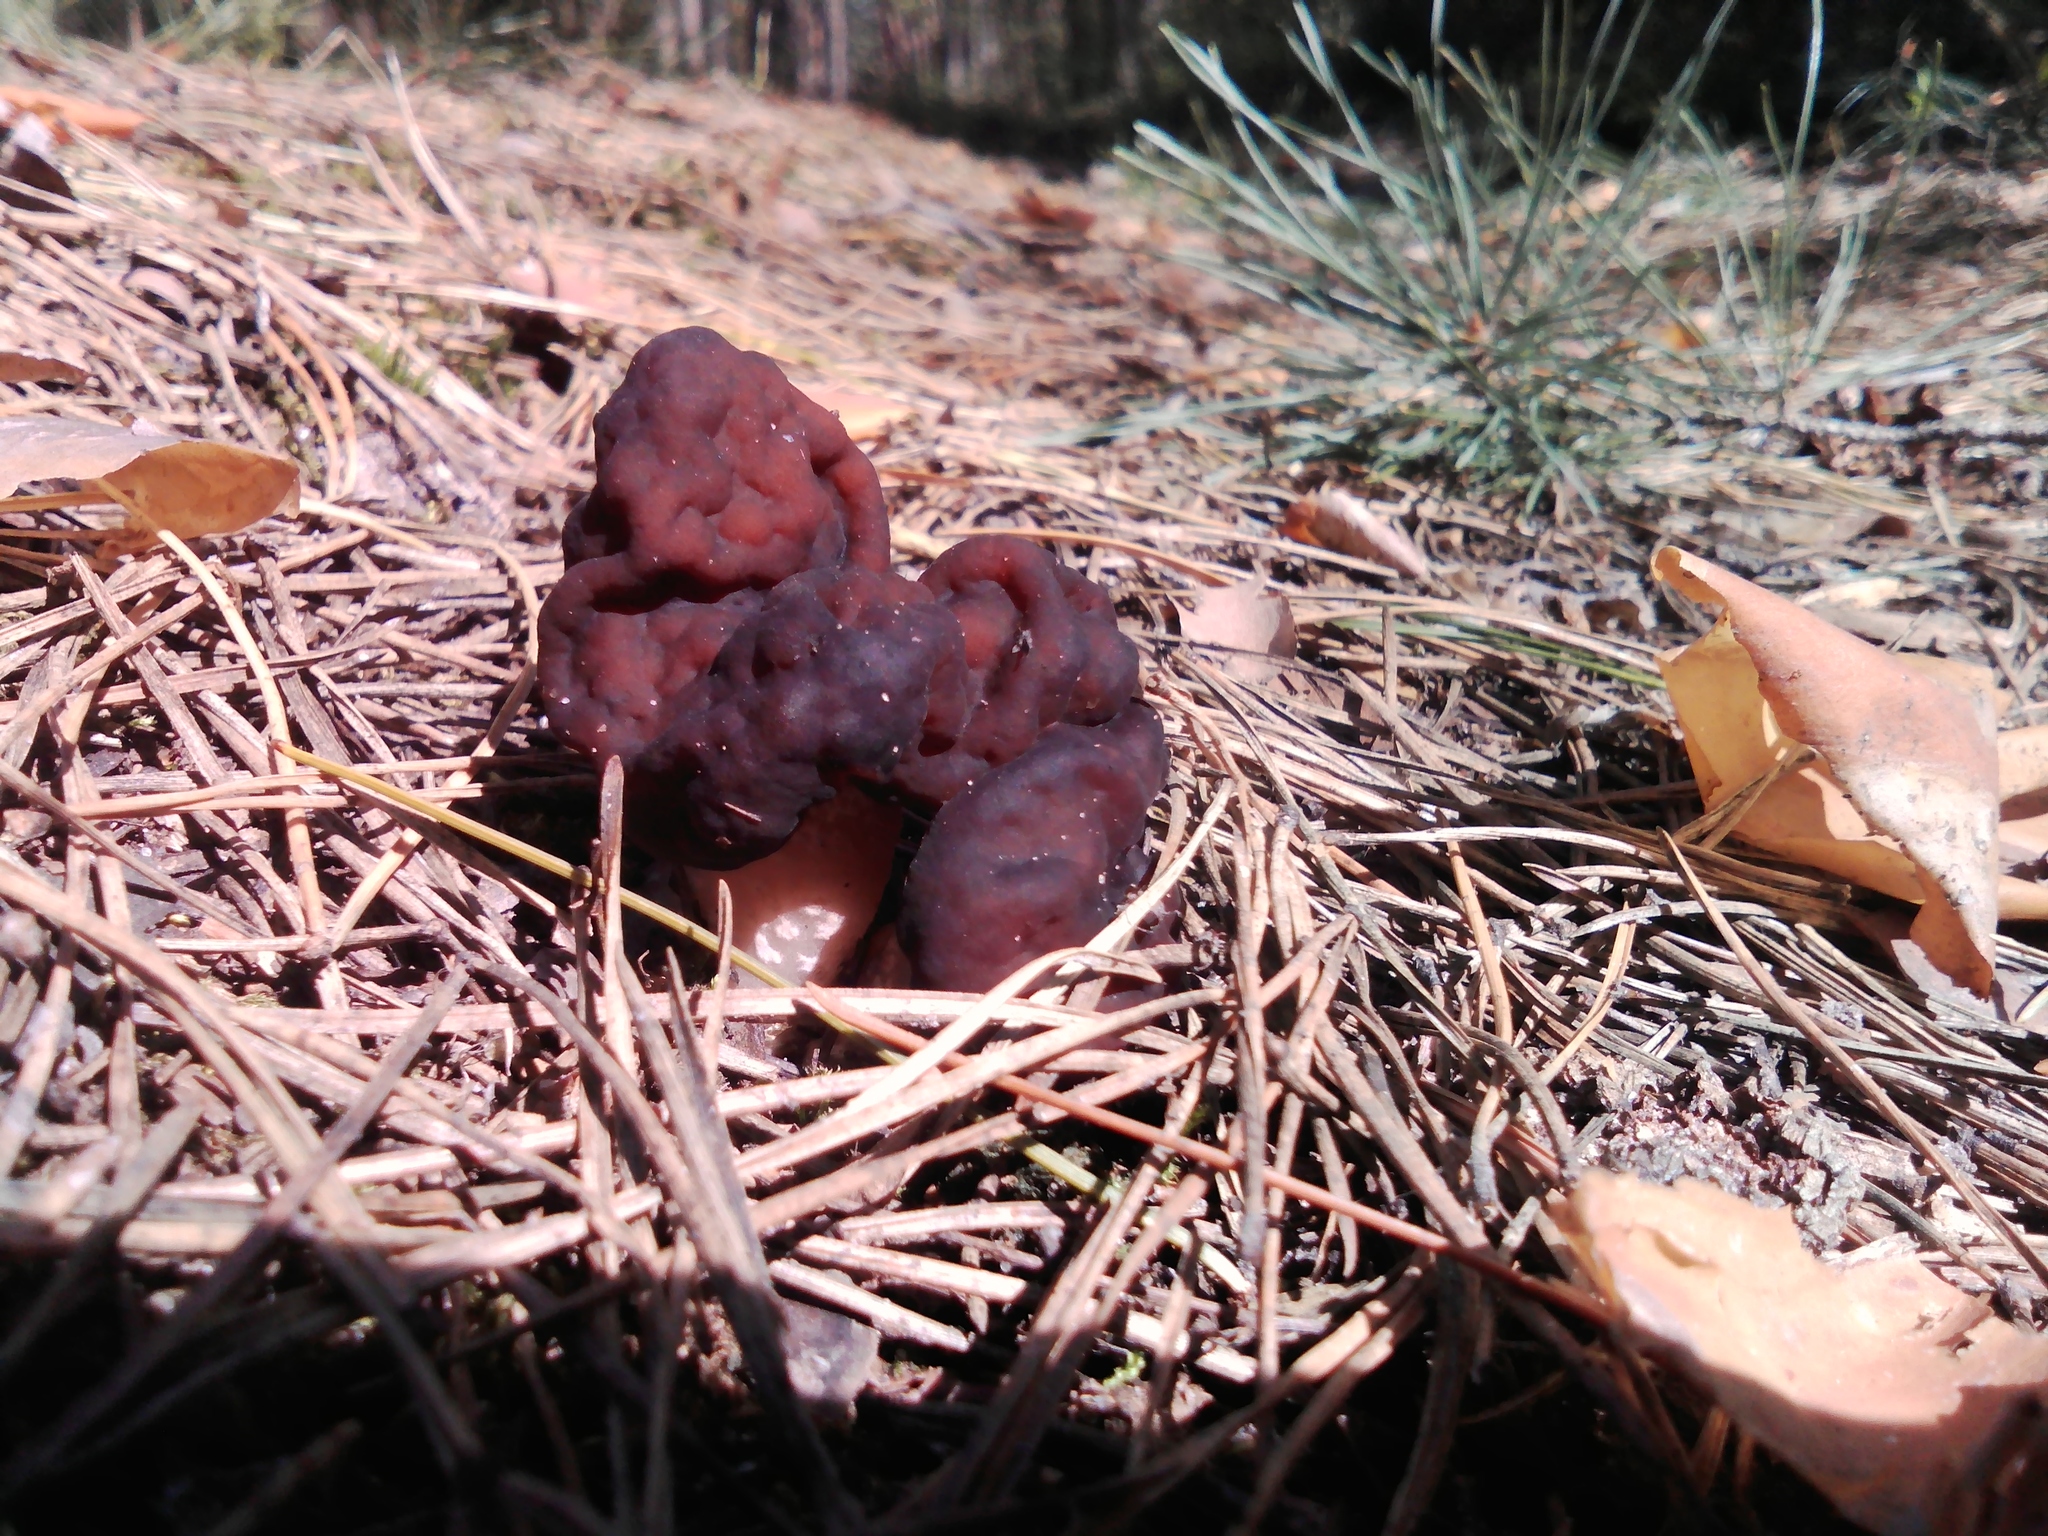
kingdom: Fungi
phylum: Ascomycota
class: Pezizomycetes
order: Pezizales
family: Discinaceae
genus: Gyromitra
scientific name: Gyromitra esculenta
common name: False morel
